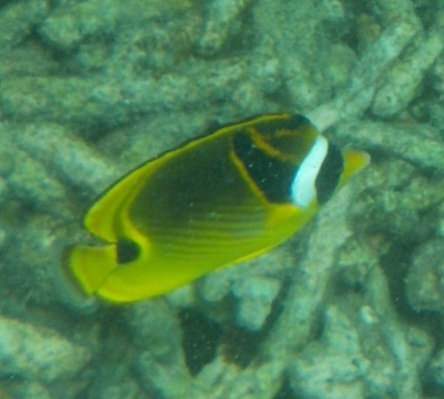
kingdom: Animalia
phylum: Chordata
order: Perciformes
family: Chaetodontidae
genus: Chaetodon
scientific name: Chaetodon lunula
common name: Raccoon butterflyfish
